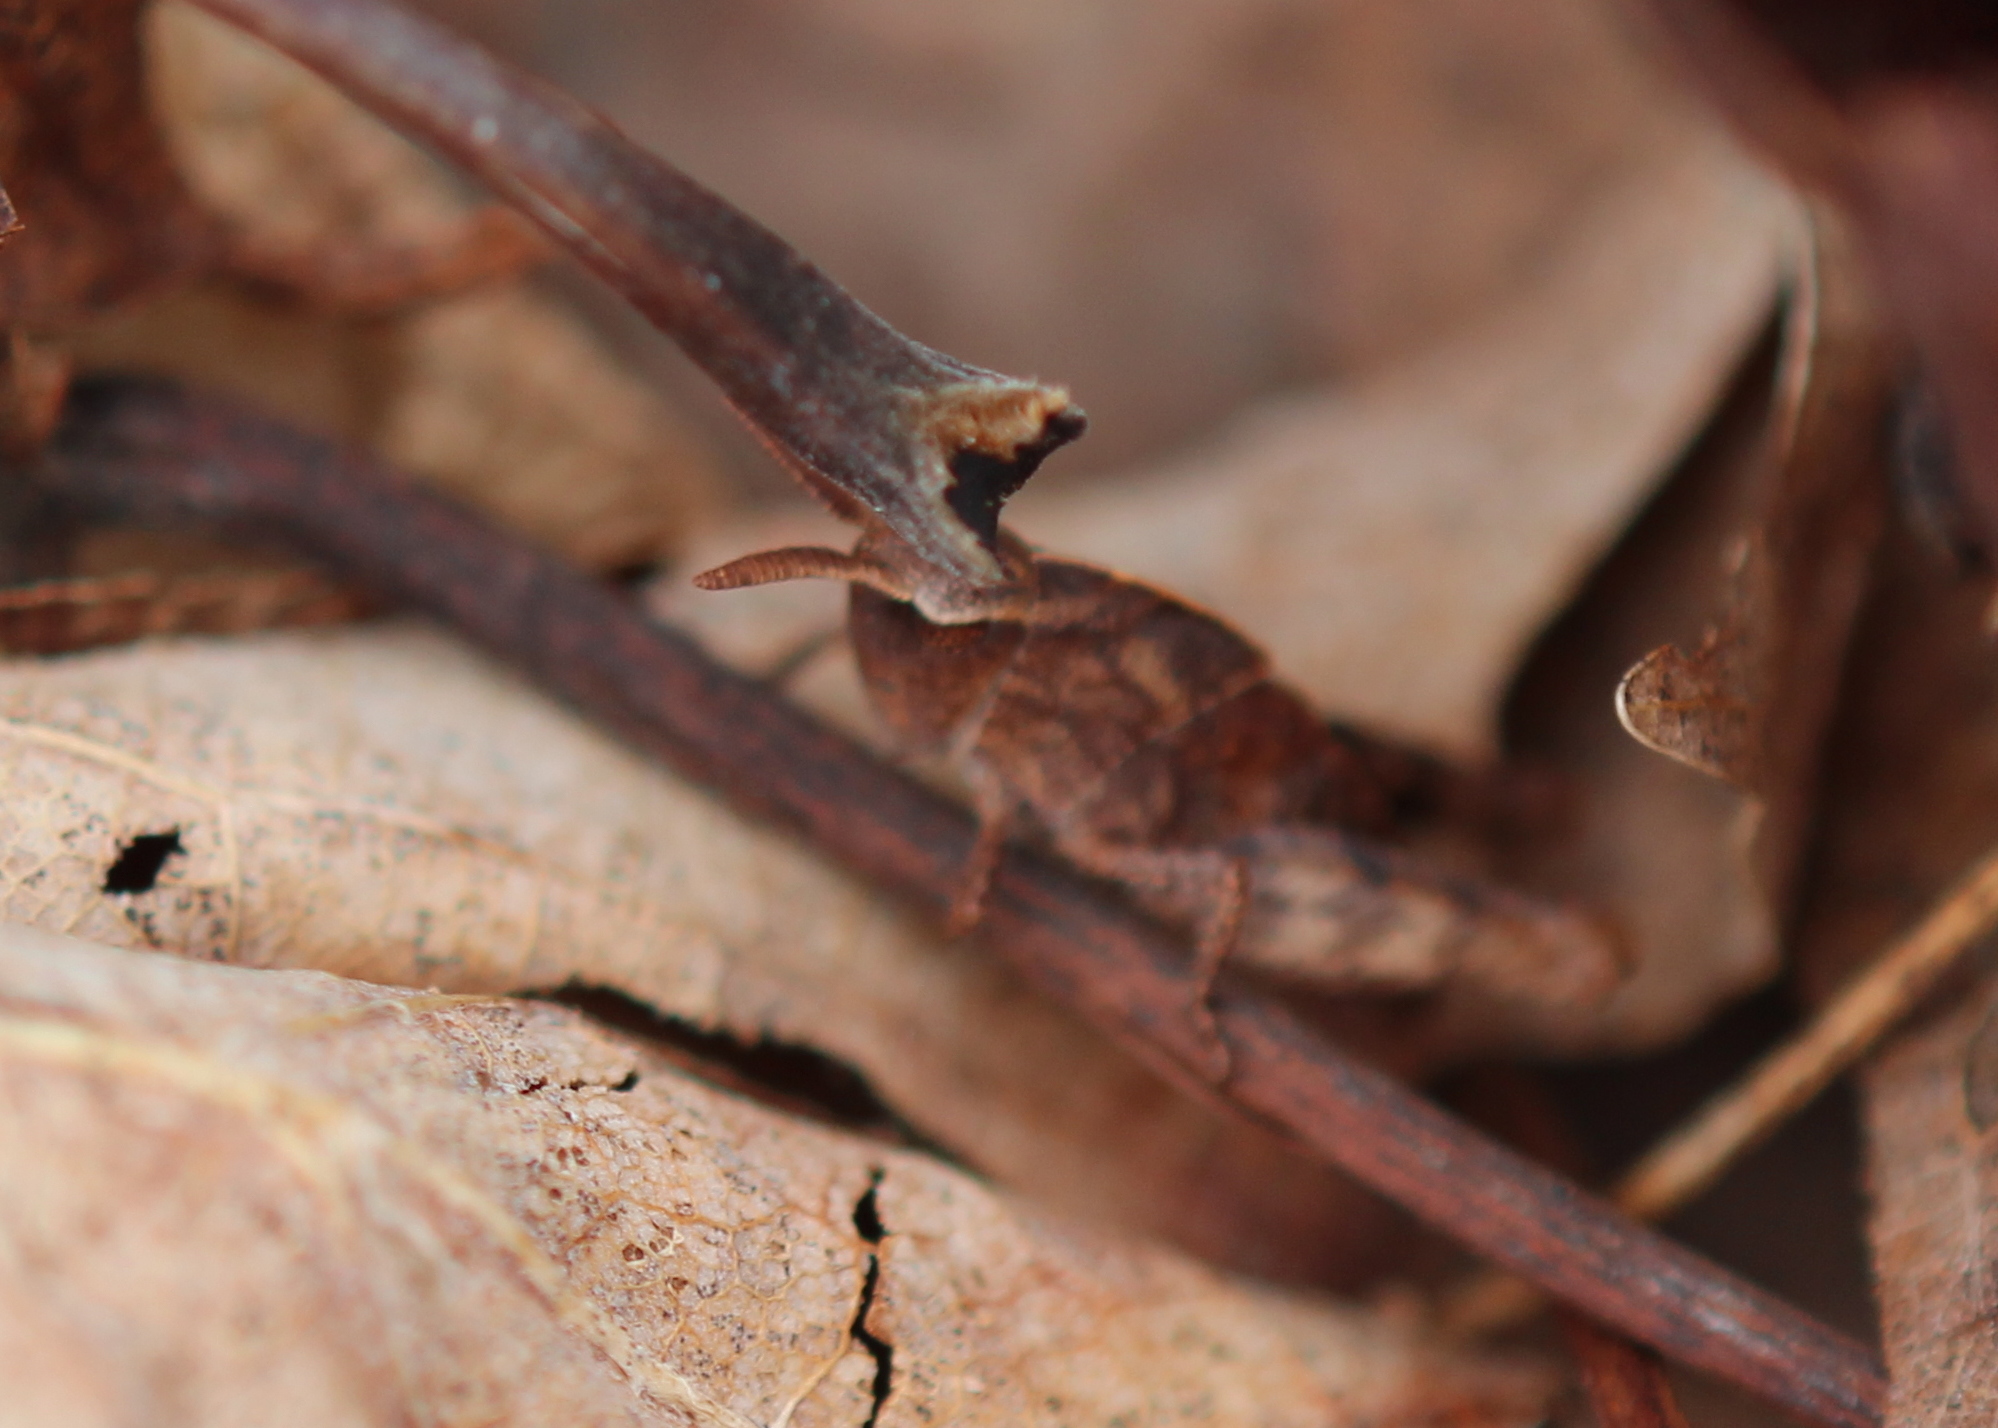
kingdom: Animalia
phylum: Arthropoda
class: Insecta
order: Orthoptera
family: Acrididae
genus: Chortophaga
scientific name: Chortophaga viridifasciata
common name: Green-striped grasshopper
